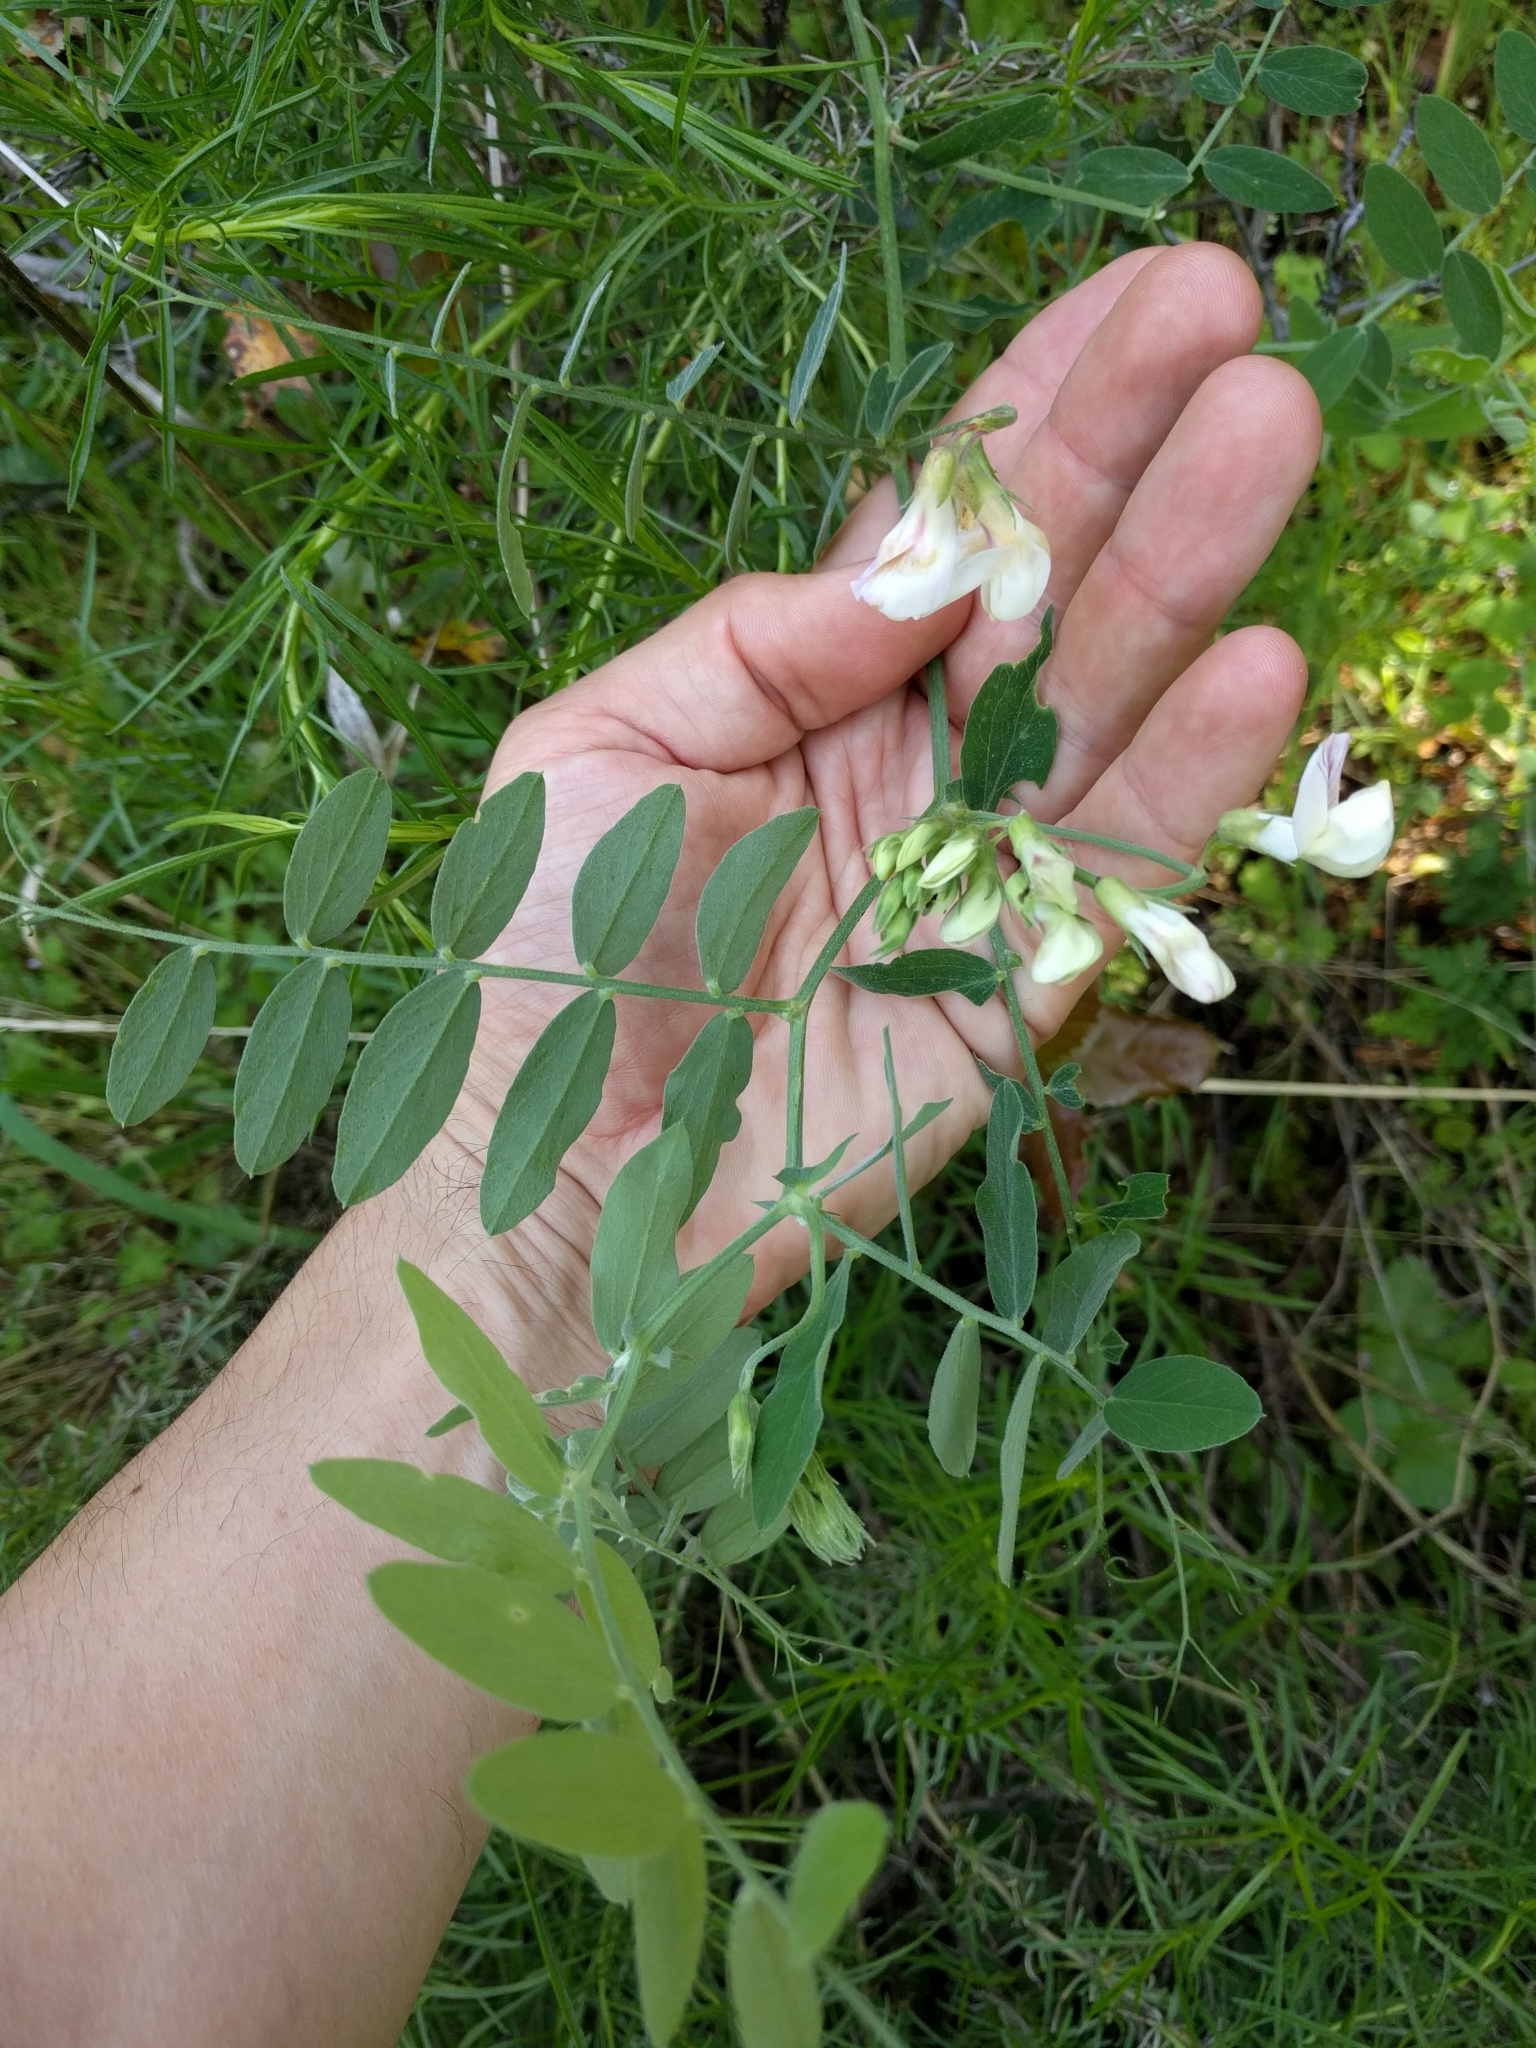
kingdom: Plantae
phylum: Tracheophyta
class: Magnoliopsida
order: Fabales
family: Fabaceae
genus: Lathyrus
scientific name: Lathyrus vestitus
